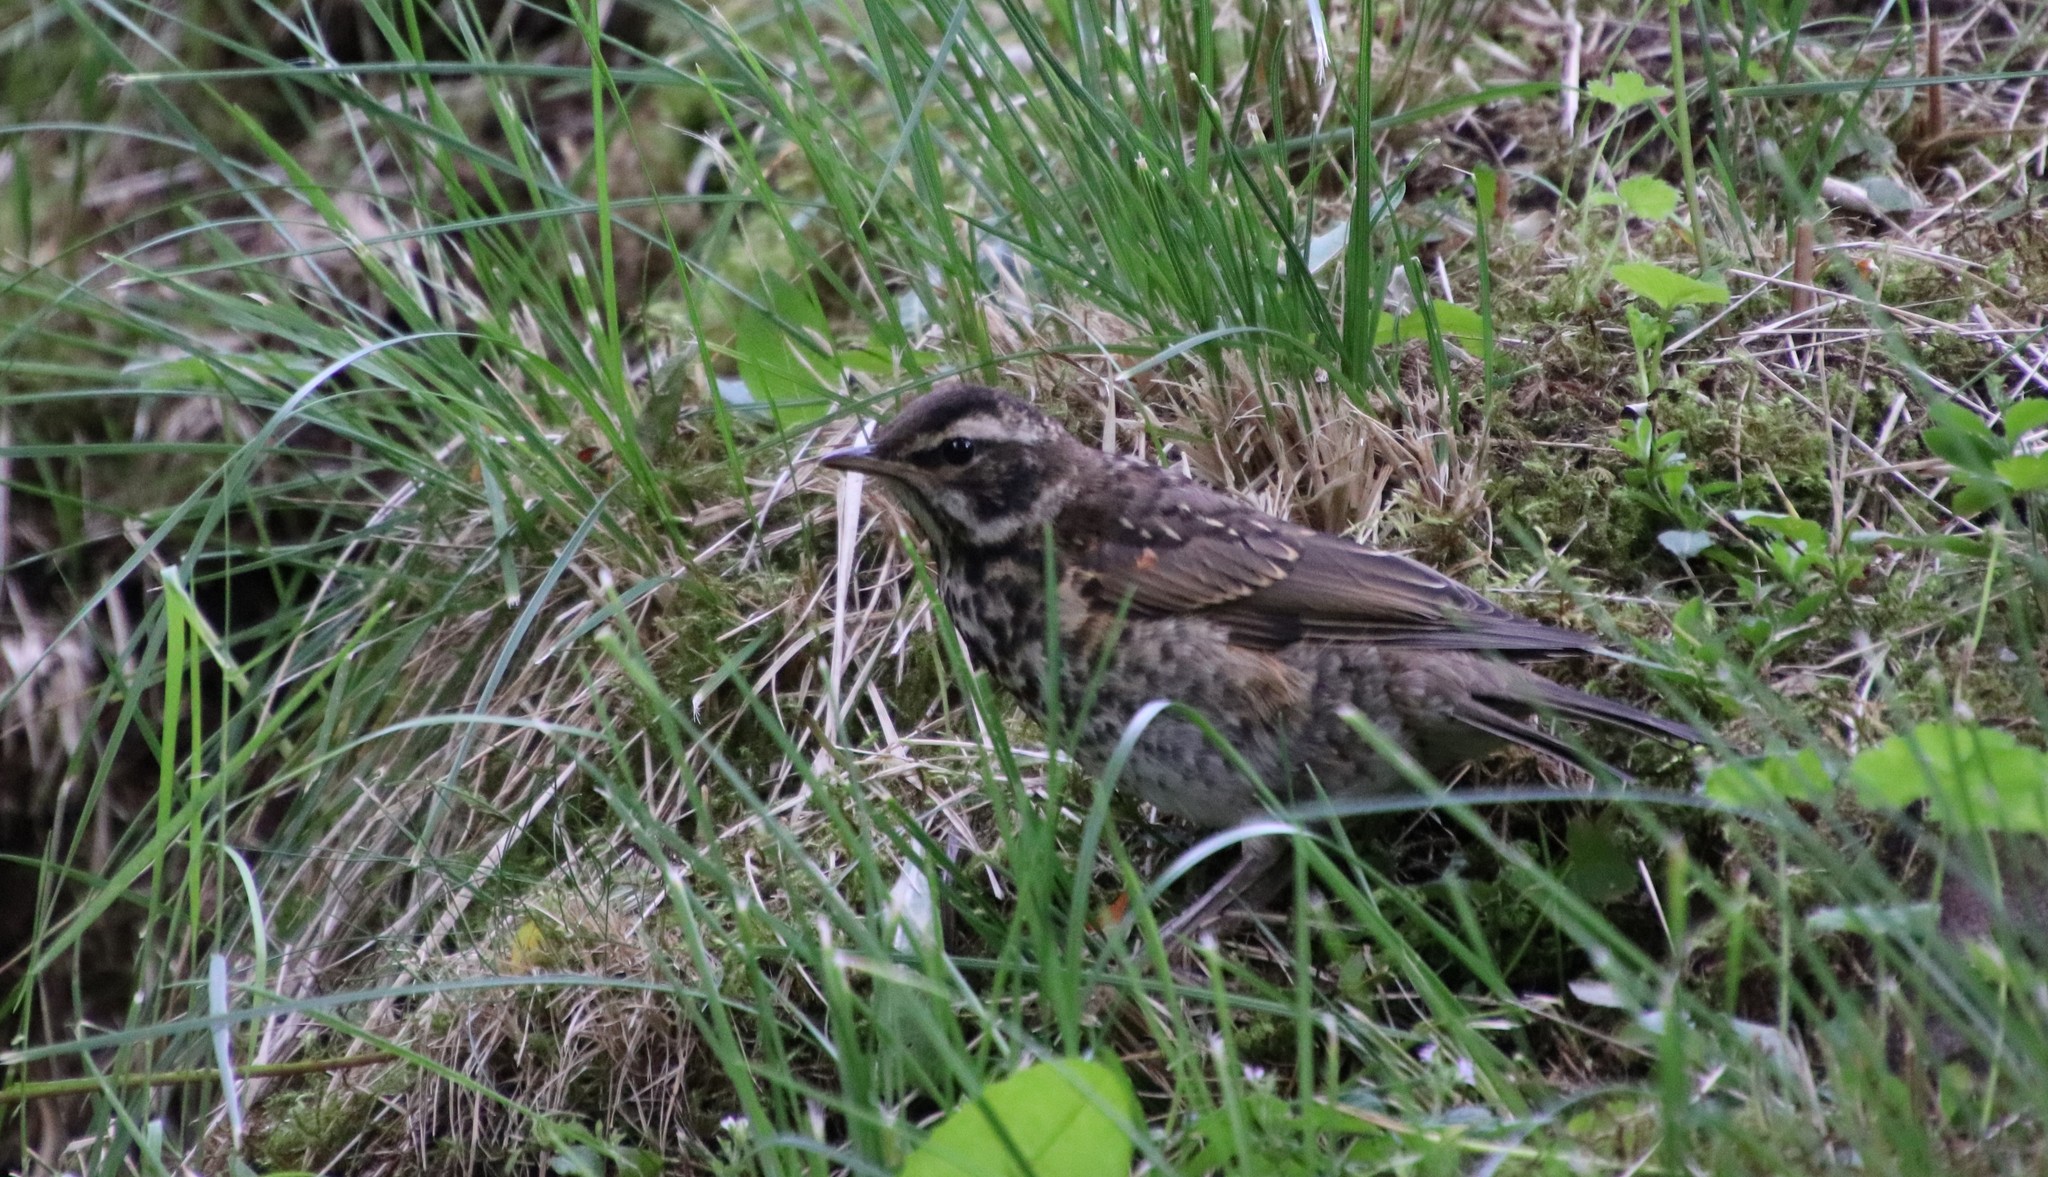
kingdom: Animalia
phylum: Chordata
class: Aves
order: Passeriformes
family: Turdidae
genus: Turdus
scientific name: Turdus iliacus
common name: Redwing
